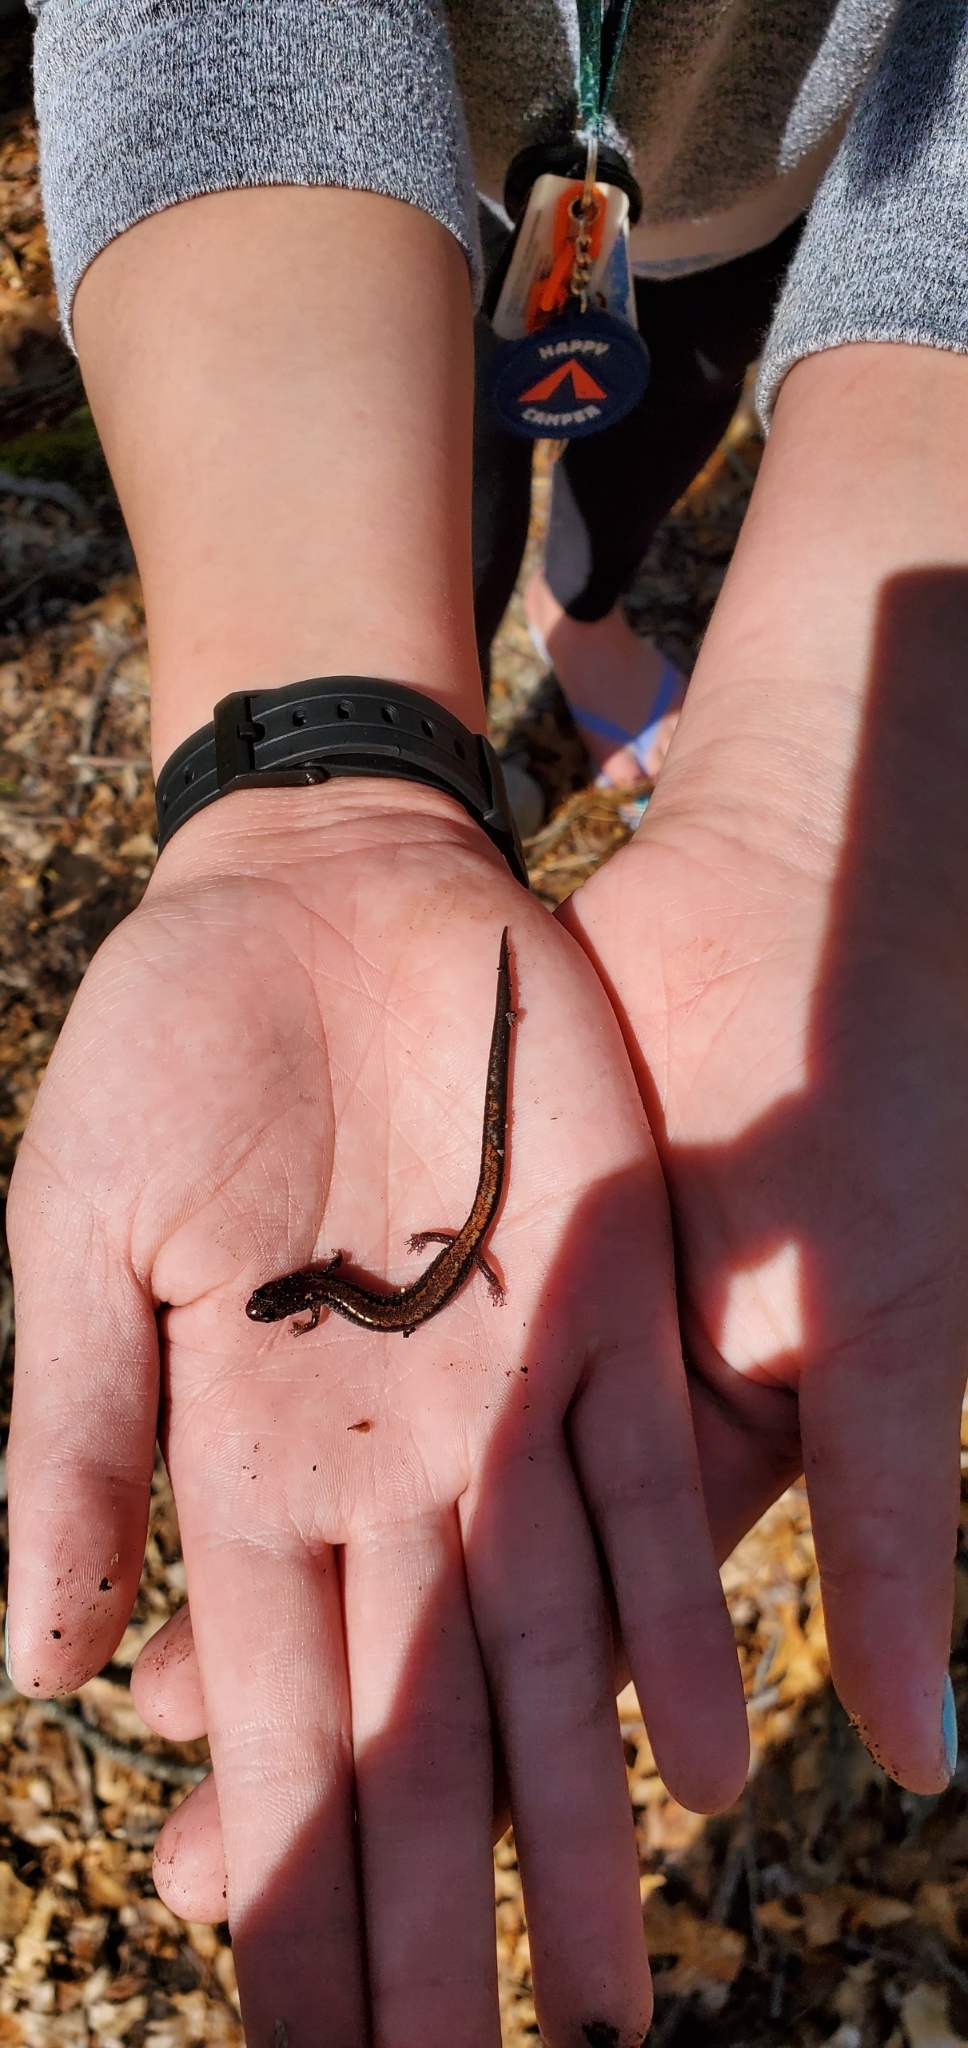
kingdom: Animalia
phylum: Chordata
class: Amphibia
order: Caudata
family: Plethodontidae
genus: Plethodon
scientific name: Plethodon cinereus
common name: Redback salamander
